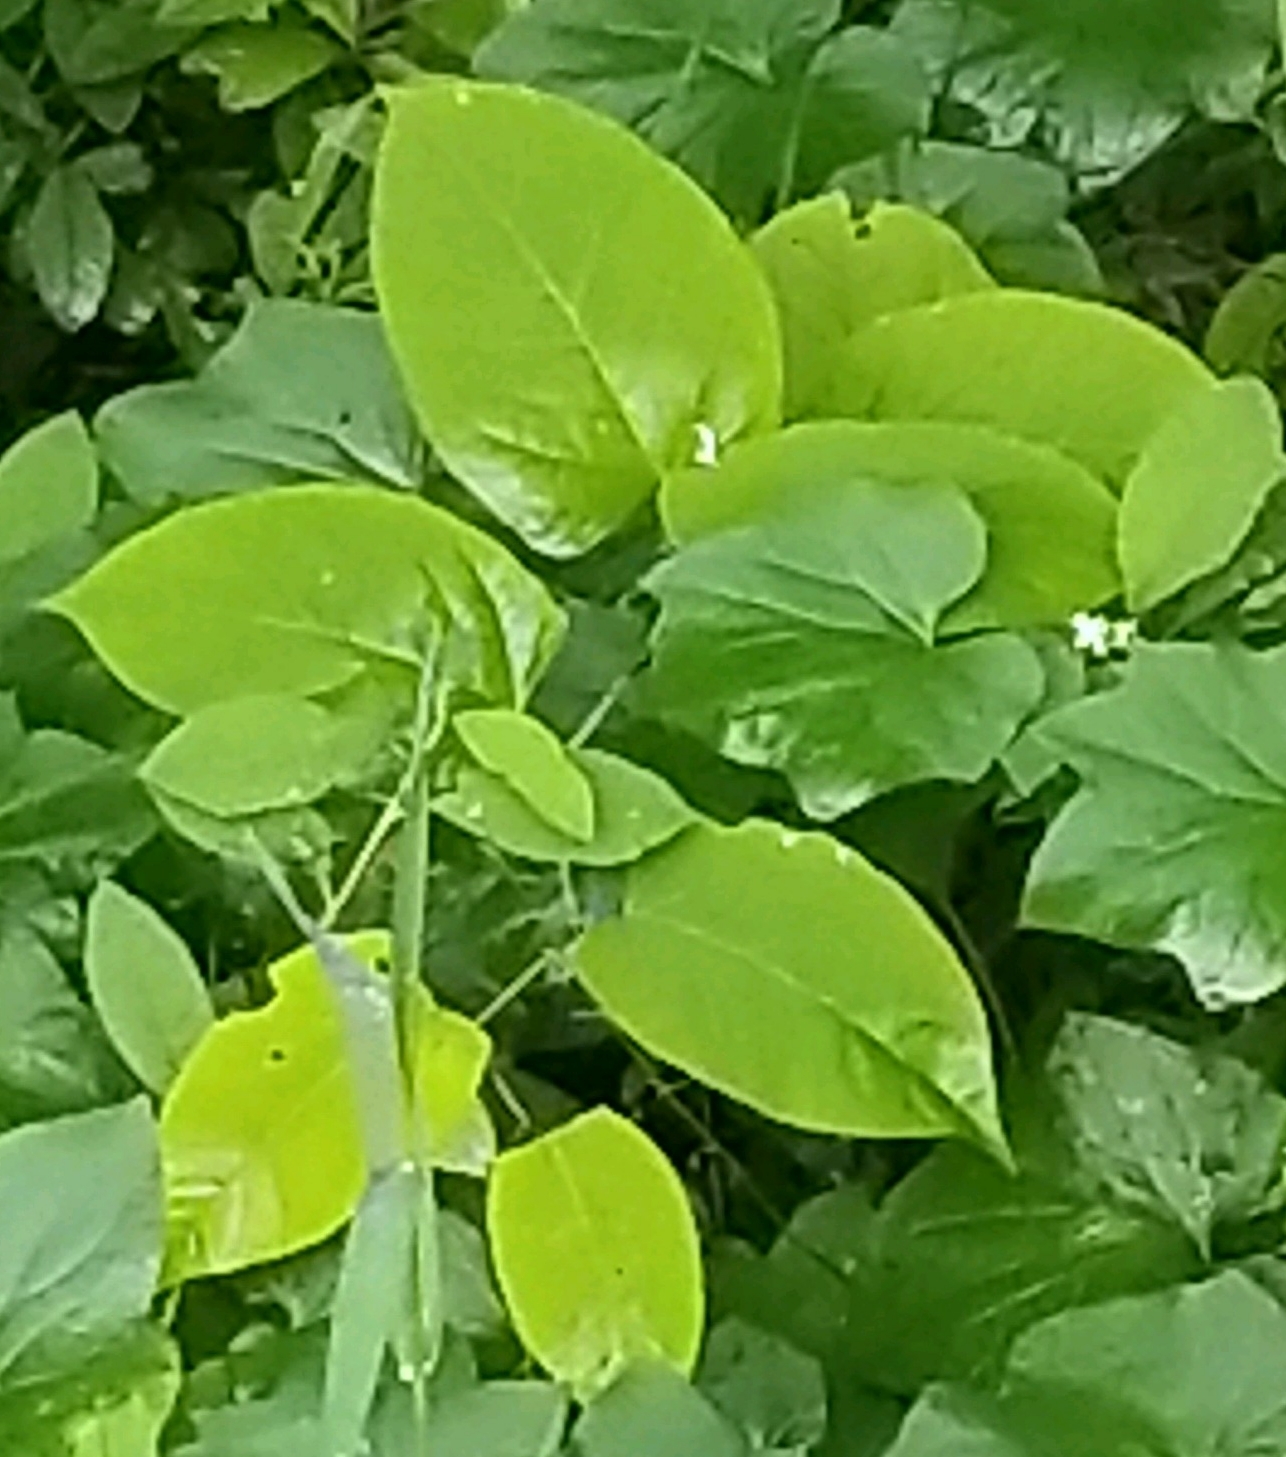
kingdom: Plantae
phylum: Tracheophyta
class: Magnoliopsida
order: Caryophyllales
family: Polygonaceae
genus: Reynoutria
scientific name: Reynoutria bohemica
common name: Bohemian knotweed
